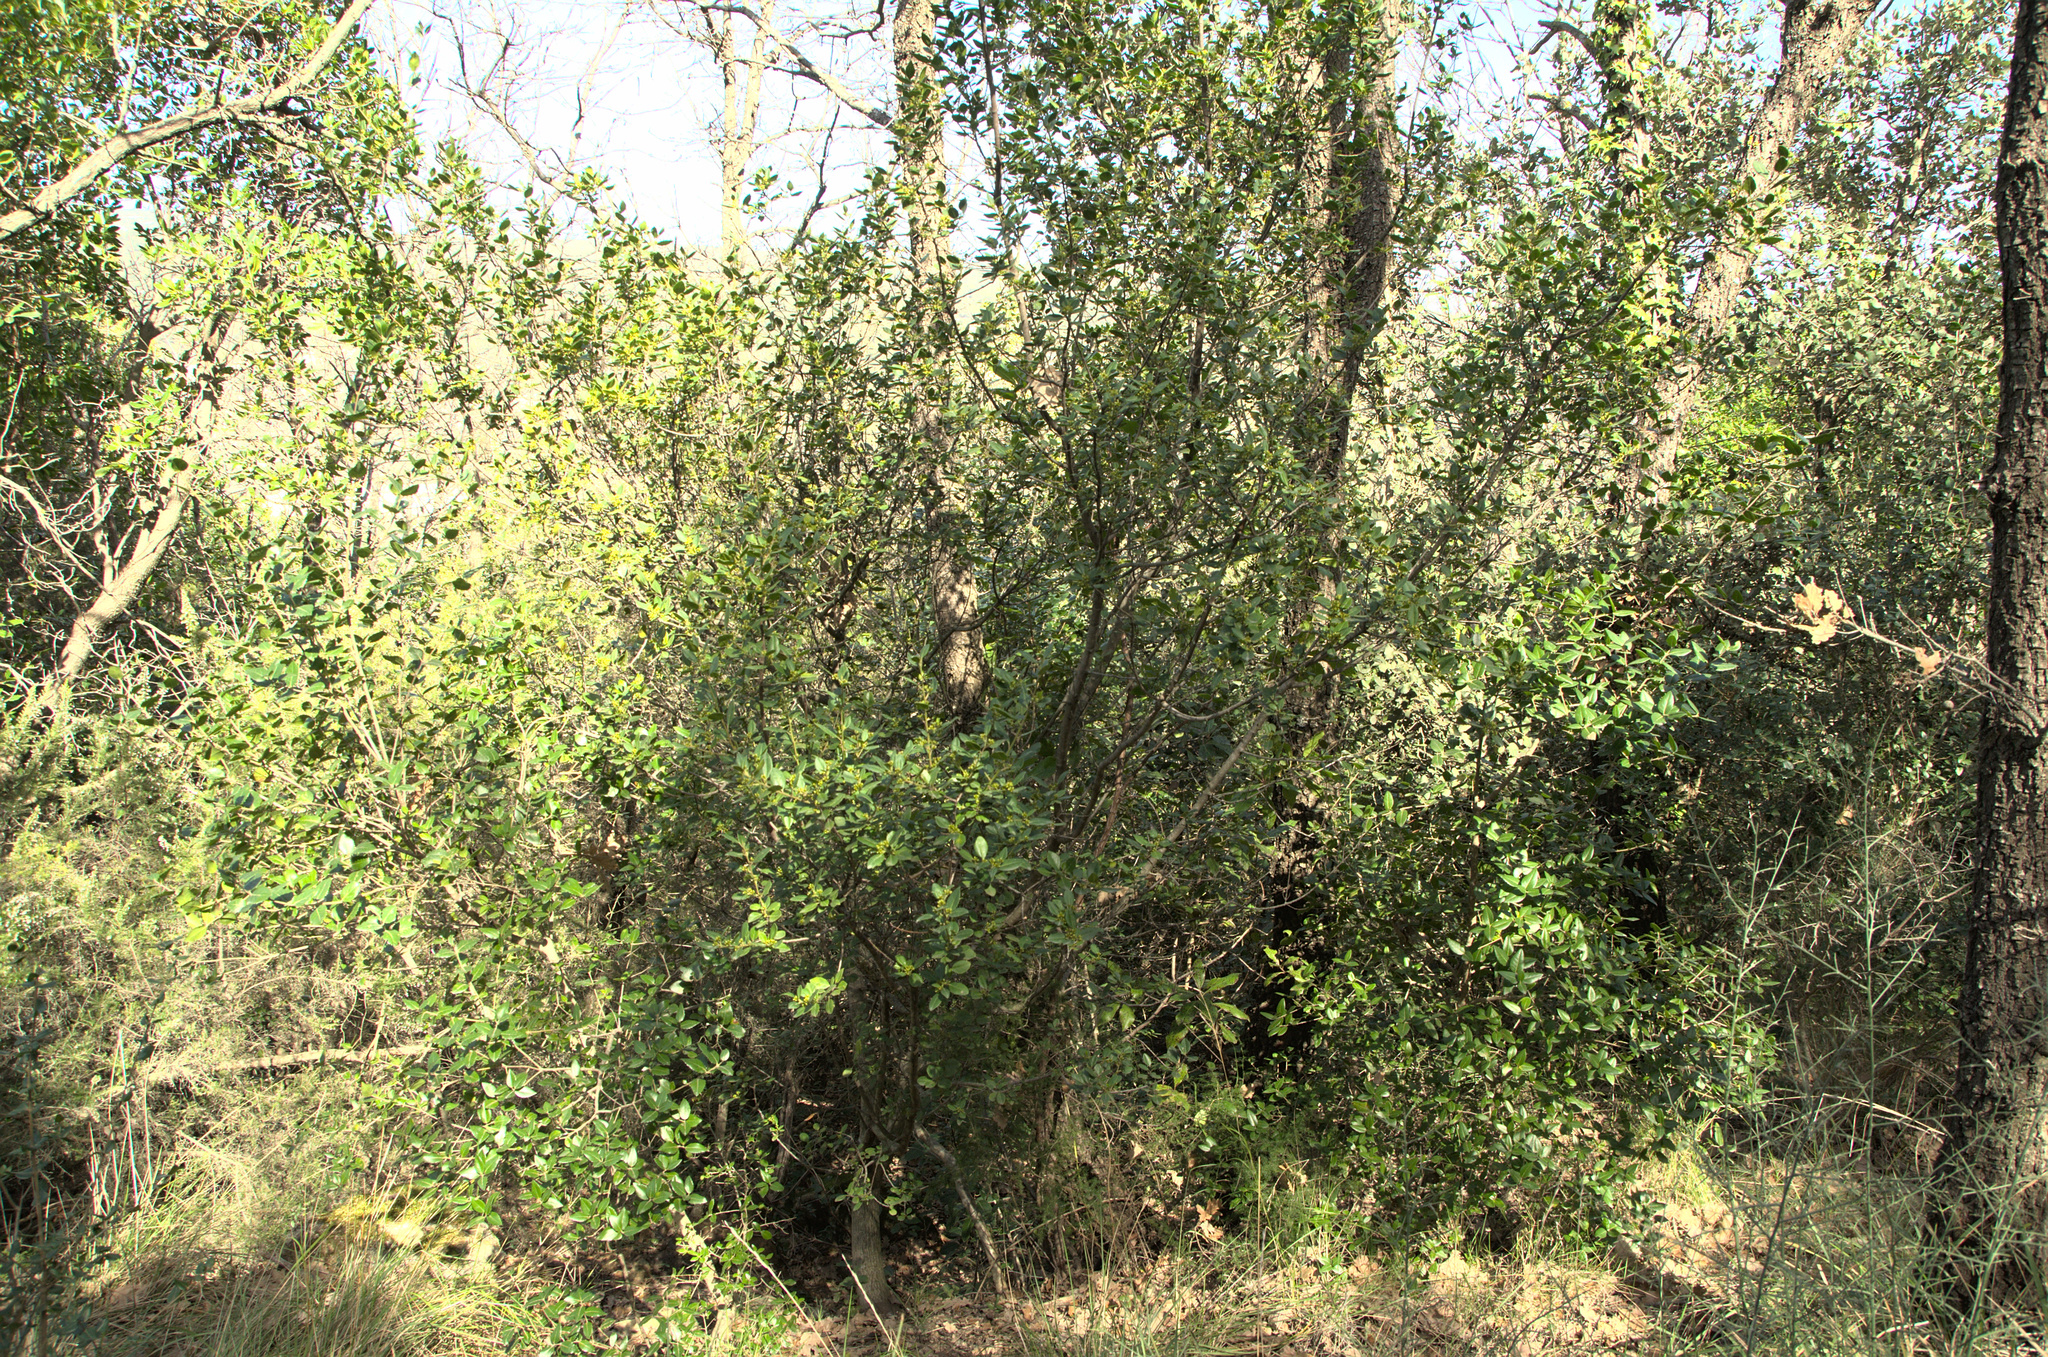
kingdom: Plantae
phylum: Tracheophyta
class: Magnoliopsida
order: Rosales
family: Rhamnaceae
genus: Rhamnus
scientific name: Rhamnus alaternus
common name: Mediterranean buckthorn
